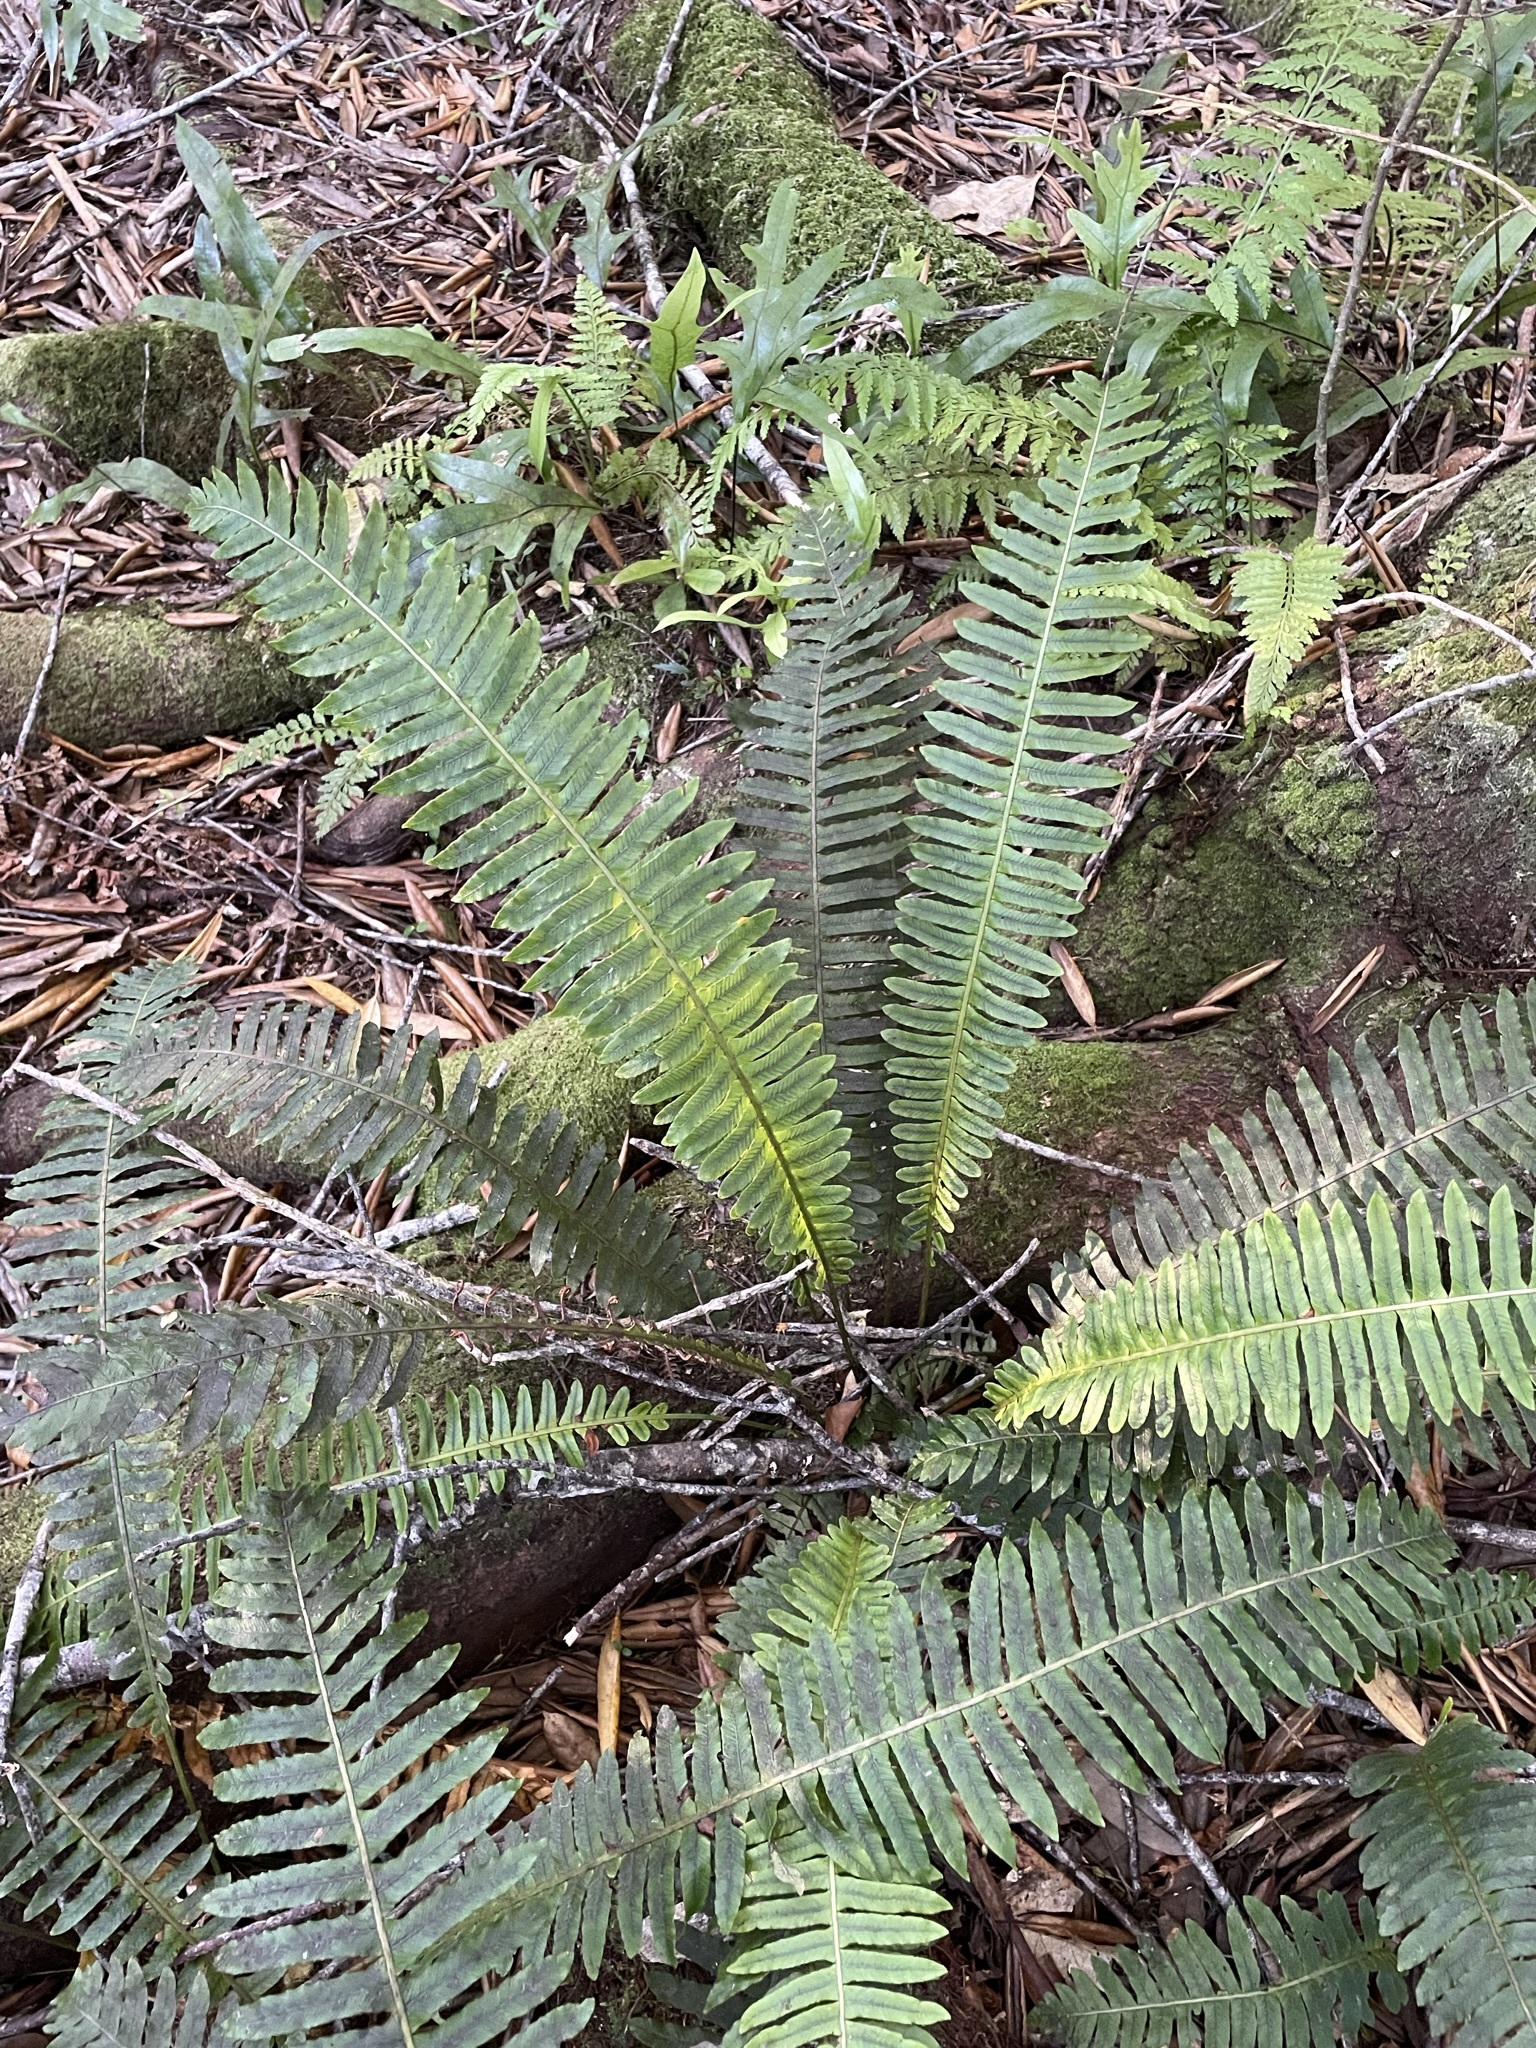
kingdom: Plantae
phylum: Tracheophyta
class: Polypodiopsida
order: Polypodiales
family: Blechnaceae
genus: Lomaria
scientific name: Lomaria discolor
